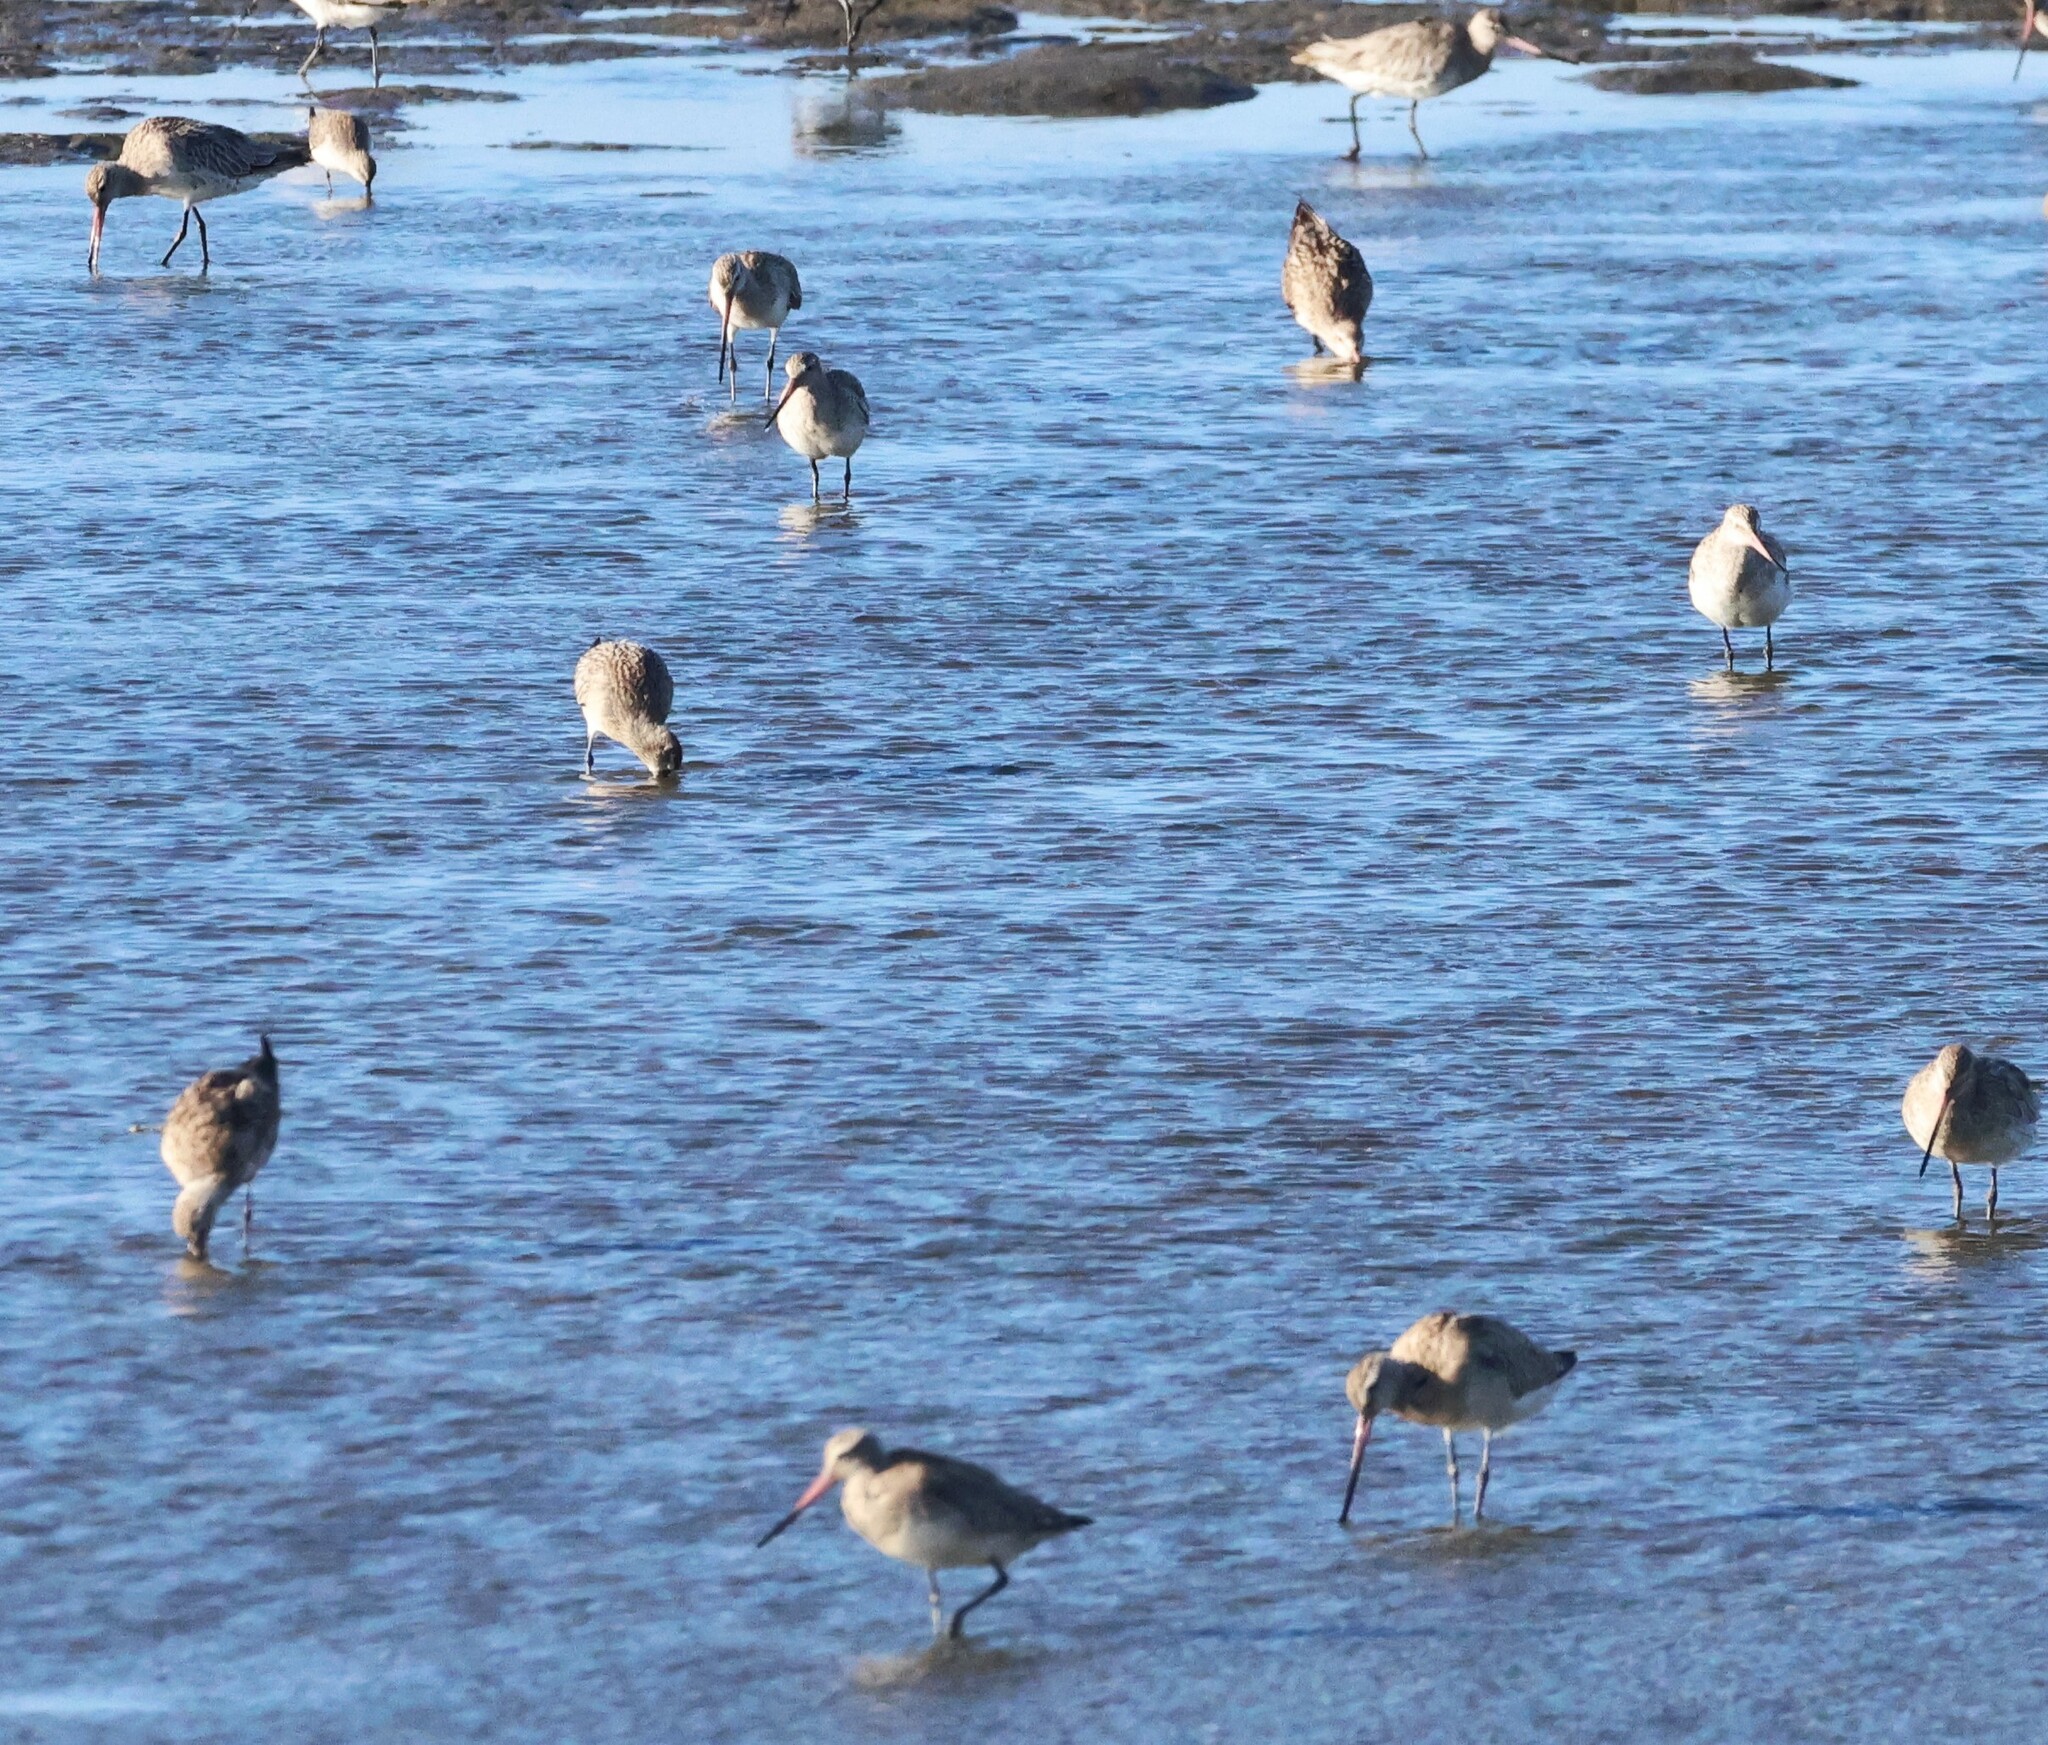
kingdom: Animalia
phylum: Chordata
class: Aves
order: Charadriiformes
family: Scolopacidae
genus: Limosa
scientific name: Limosa lapponica
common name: Bar-tailed godwit
